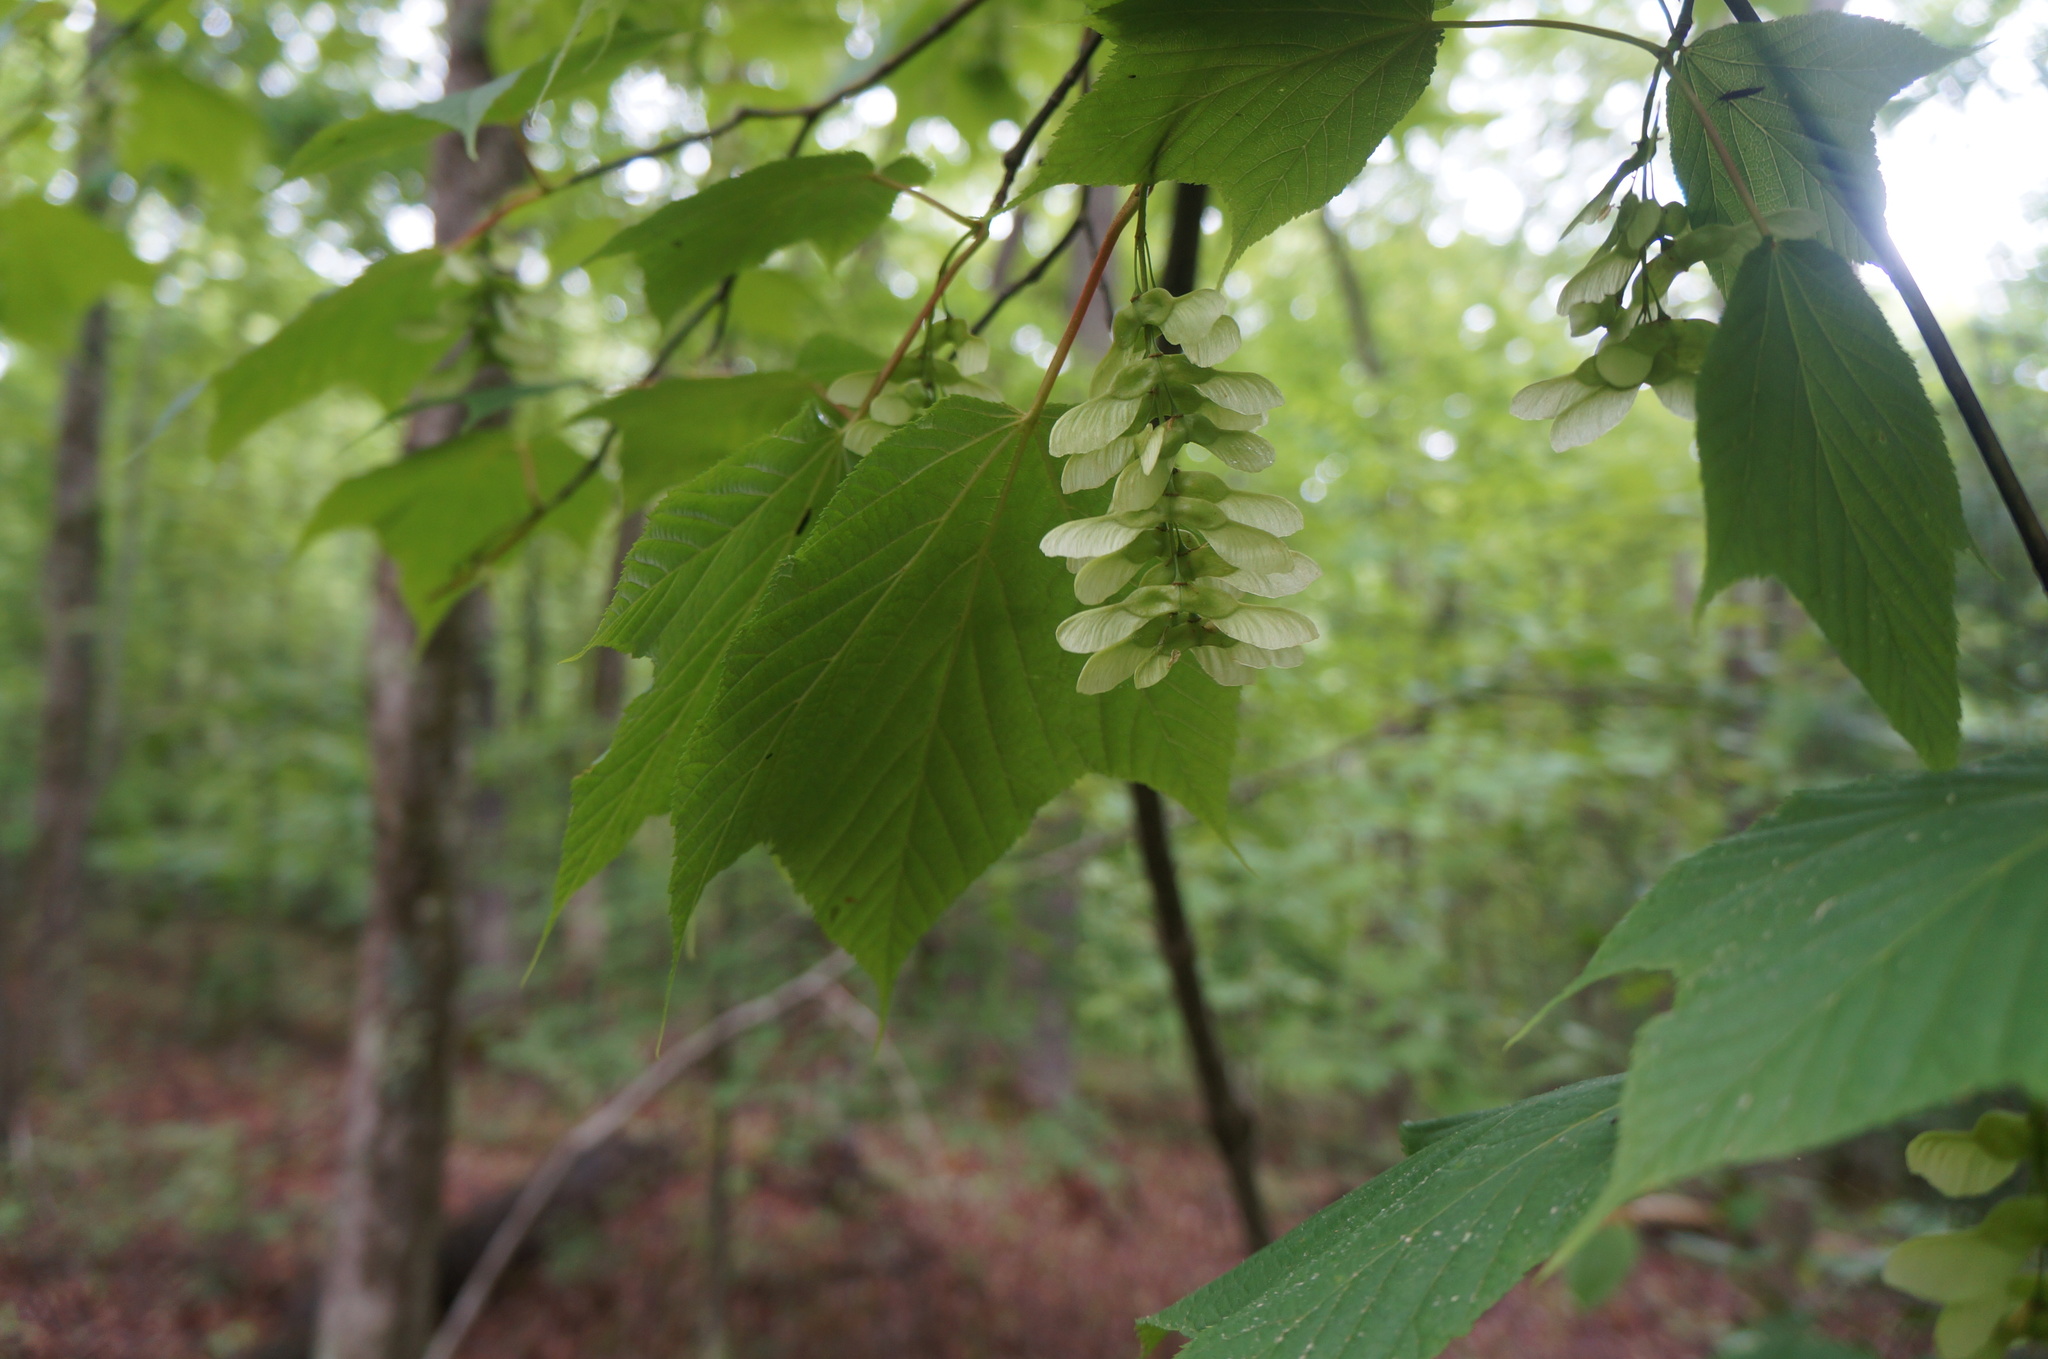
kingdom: Plantae
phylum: Tracheophyta
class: Magnoliopsida
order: Sapindales
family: Sapindaceae
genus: Acer
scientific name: Acer pensylvanicum
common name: Moosewood
